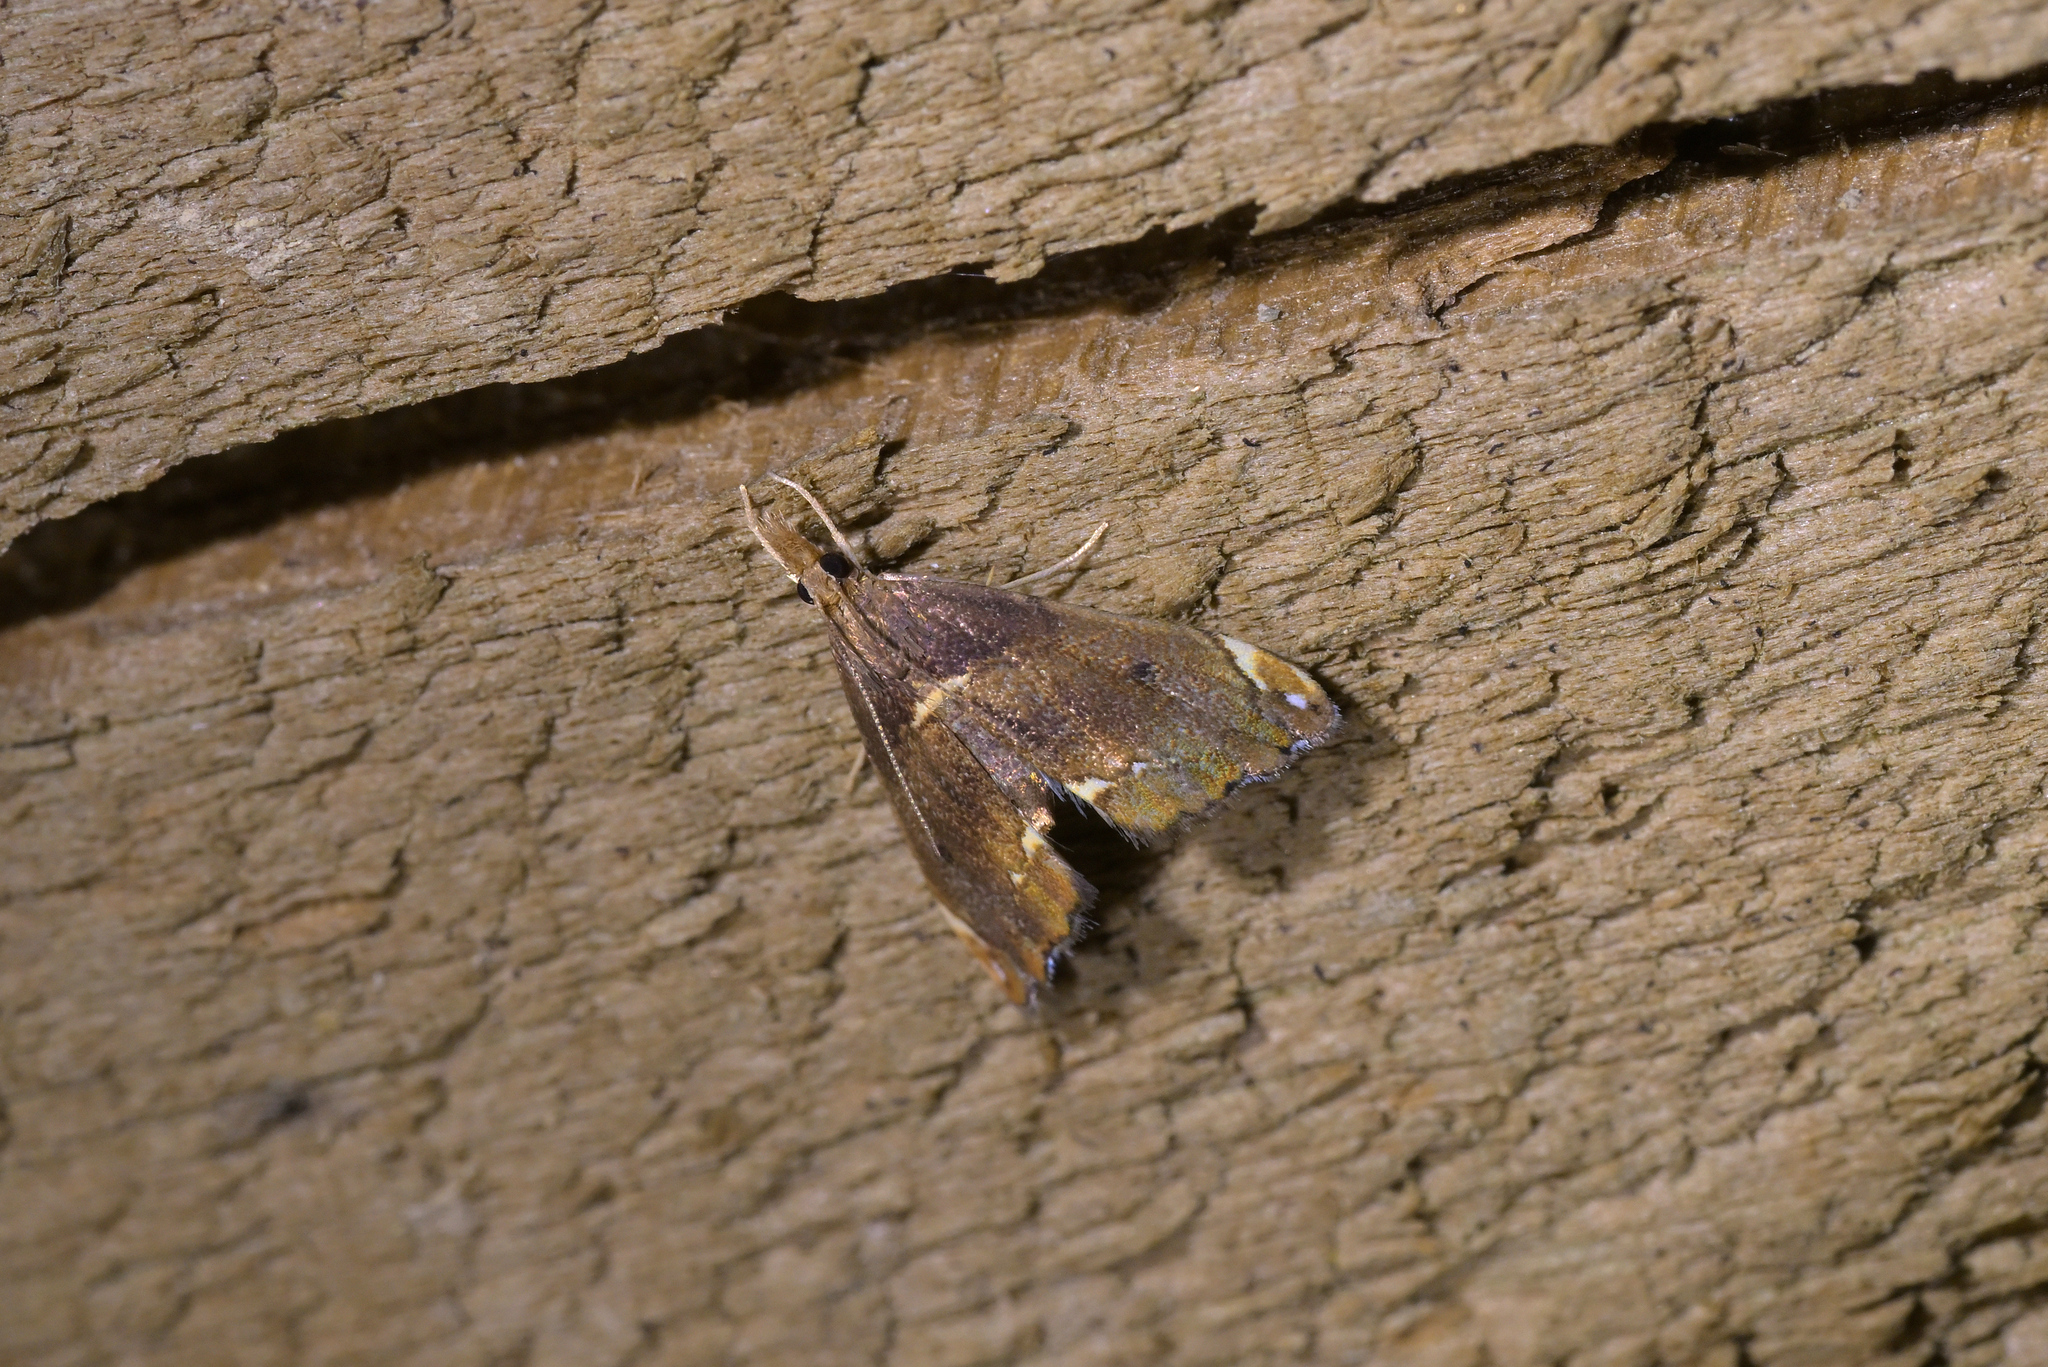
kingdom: Animalia
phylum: Arthropoda
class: Insecta
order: Lepidoptera
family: Crambidae
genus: Glaucocharis
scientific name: Glaucocharis pyrsophanes
